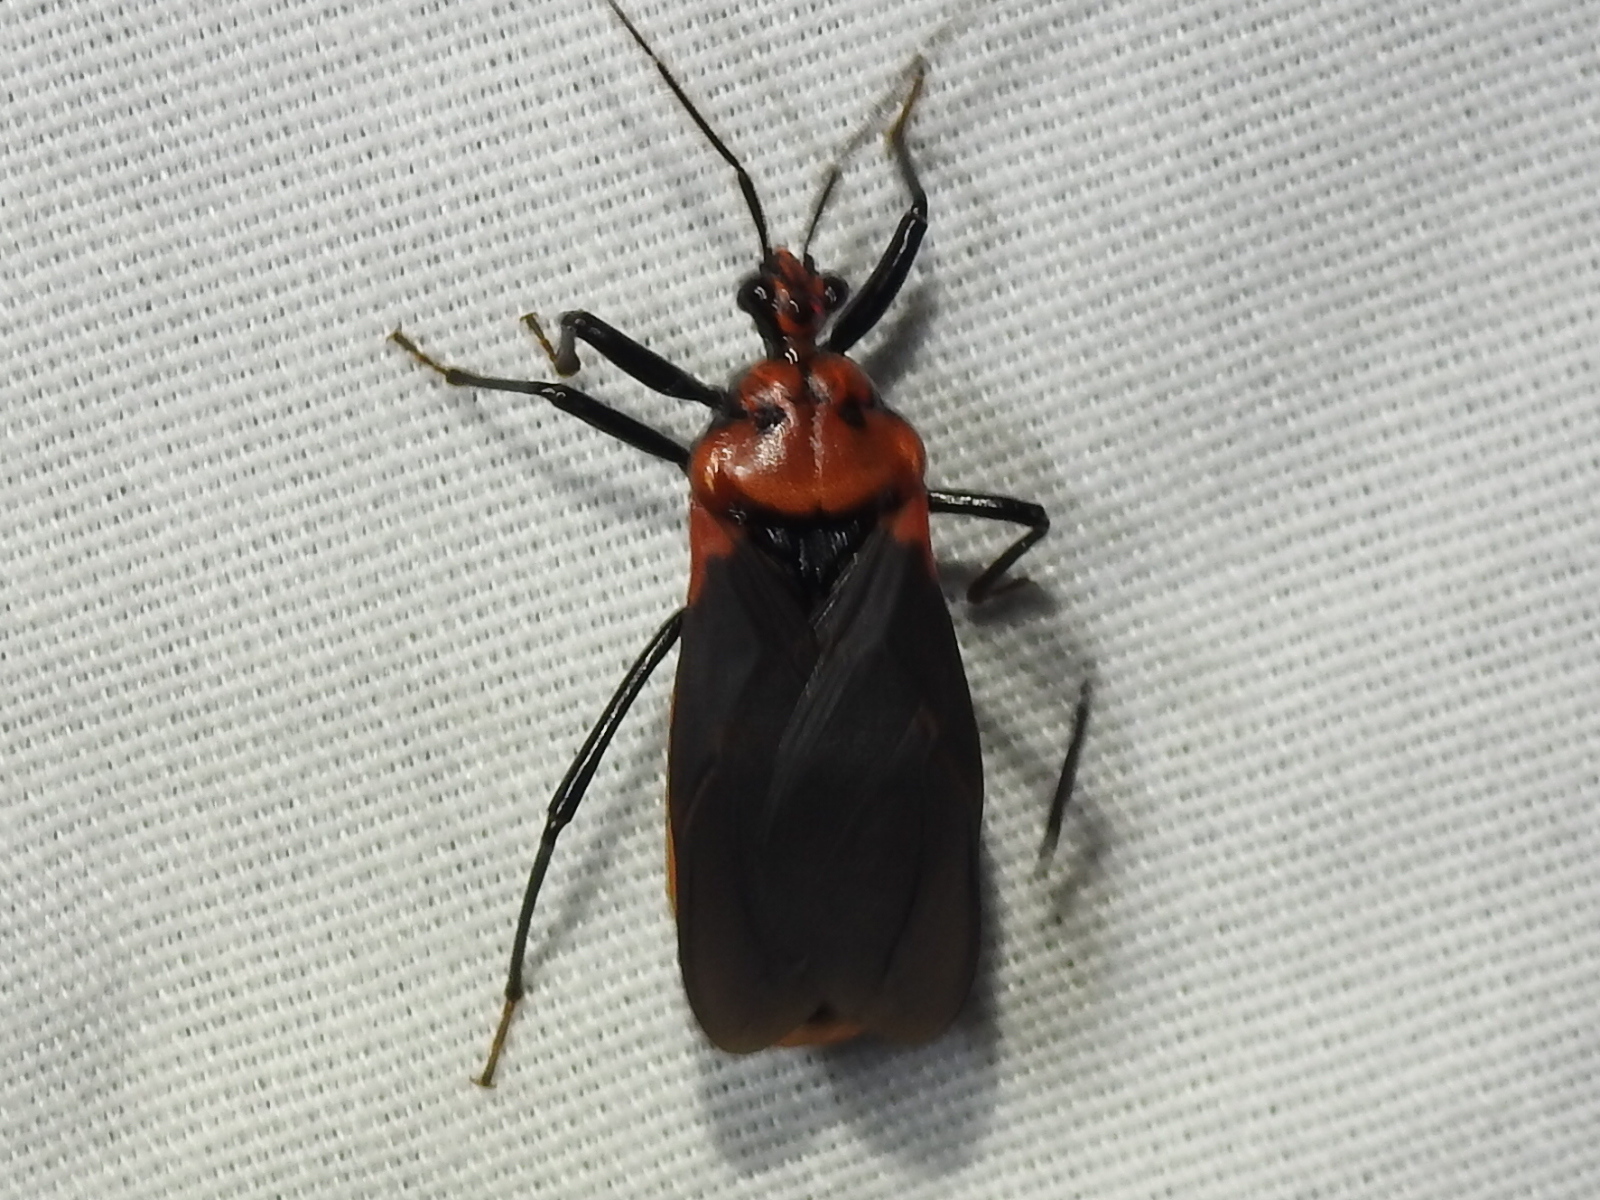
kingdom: Animalia
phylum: Arthropoda
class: Insecta
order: Hemiptera
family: Reduviidae
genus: Rhiginia
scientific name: Rhiginia cinctiventris
